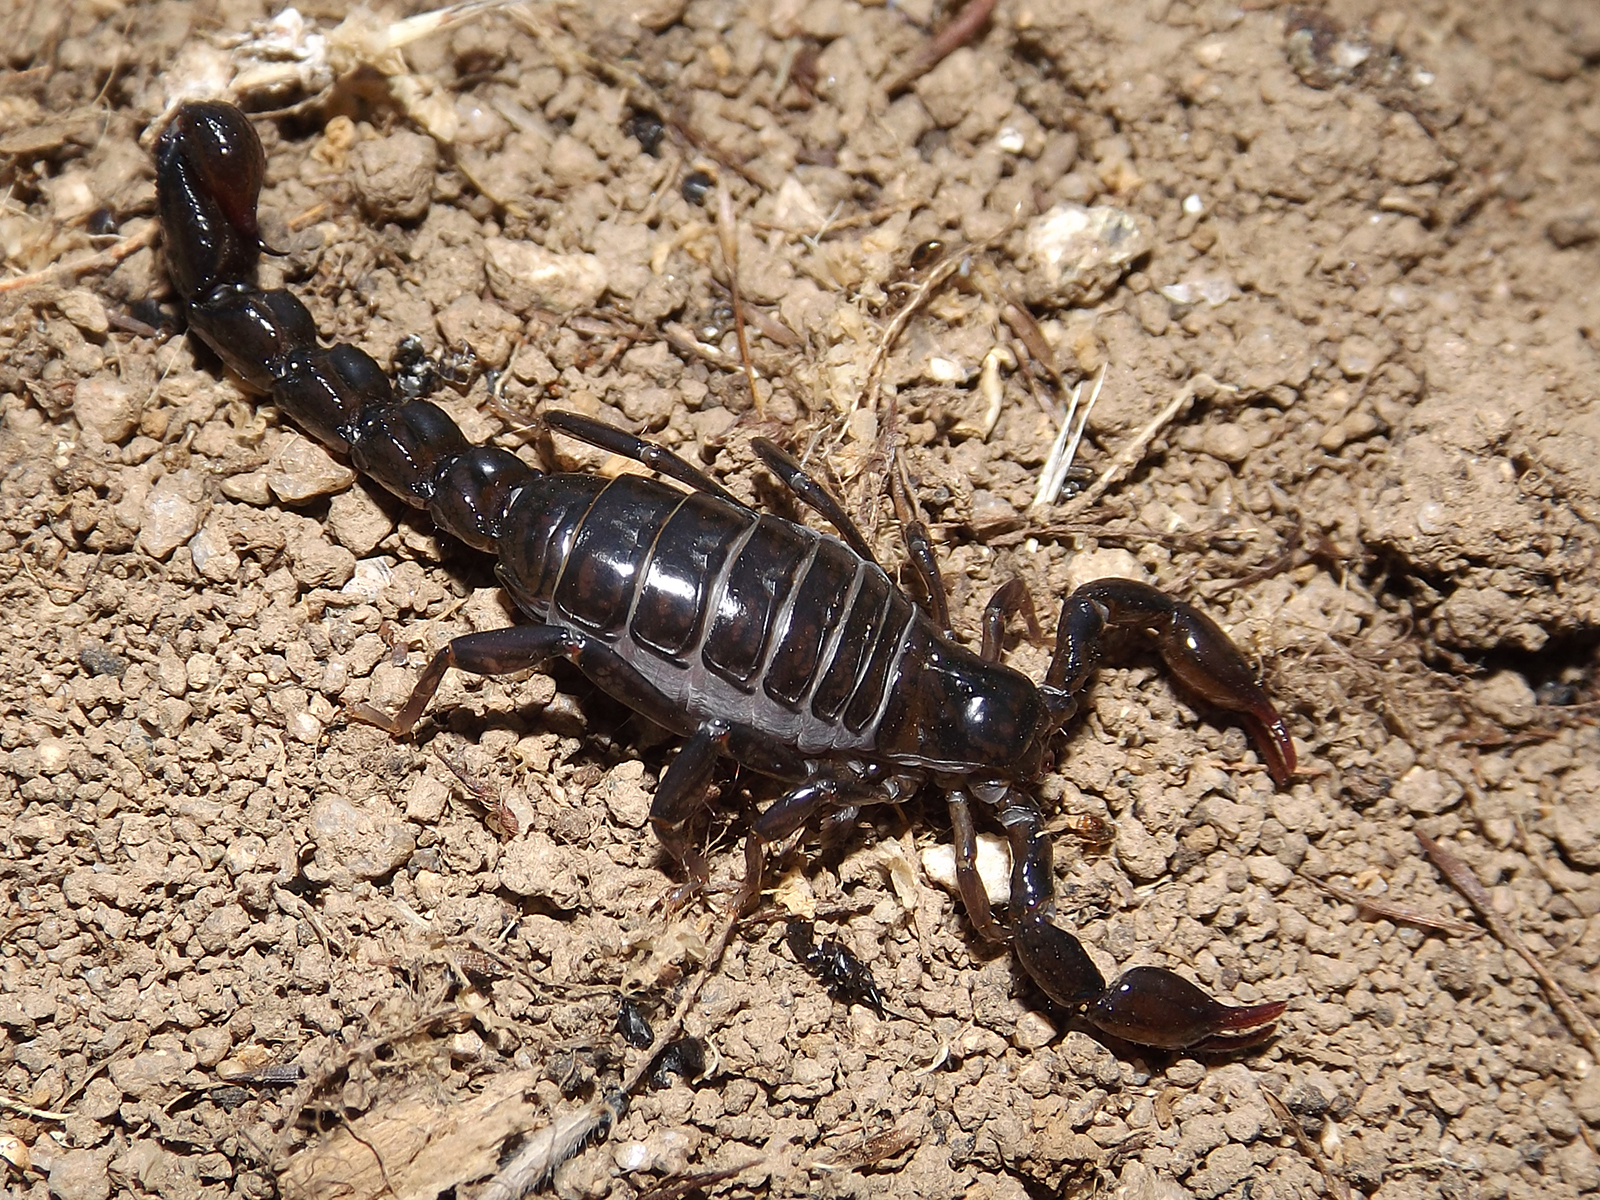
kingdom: Animalia
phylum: Arthropoda
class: Arachnida
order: Scorpiones
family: Bothriuridae
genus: Bothriurus
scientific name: Bothriurus keyserlingi
